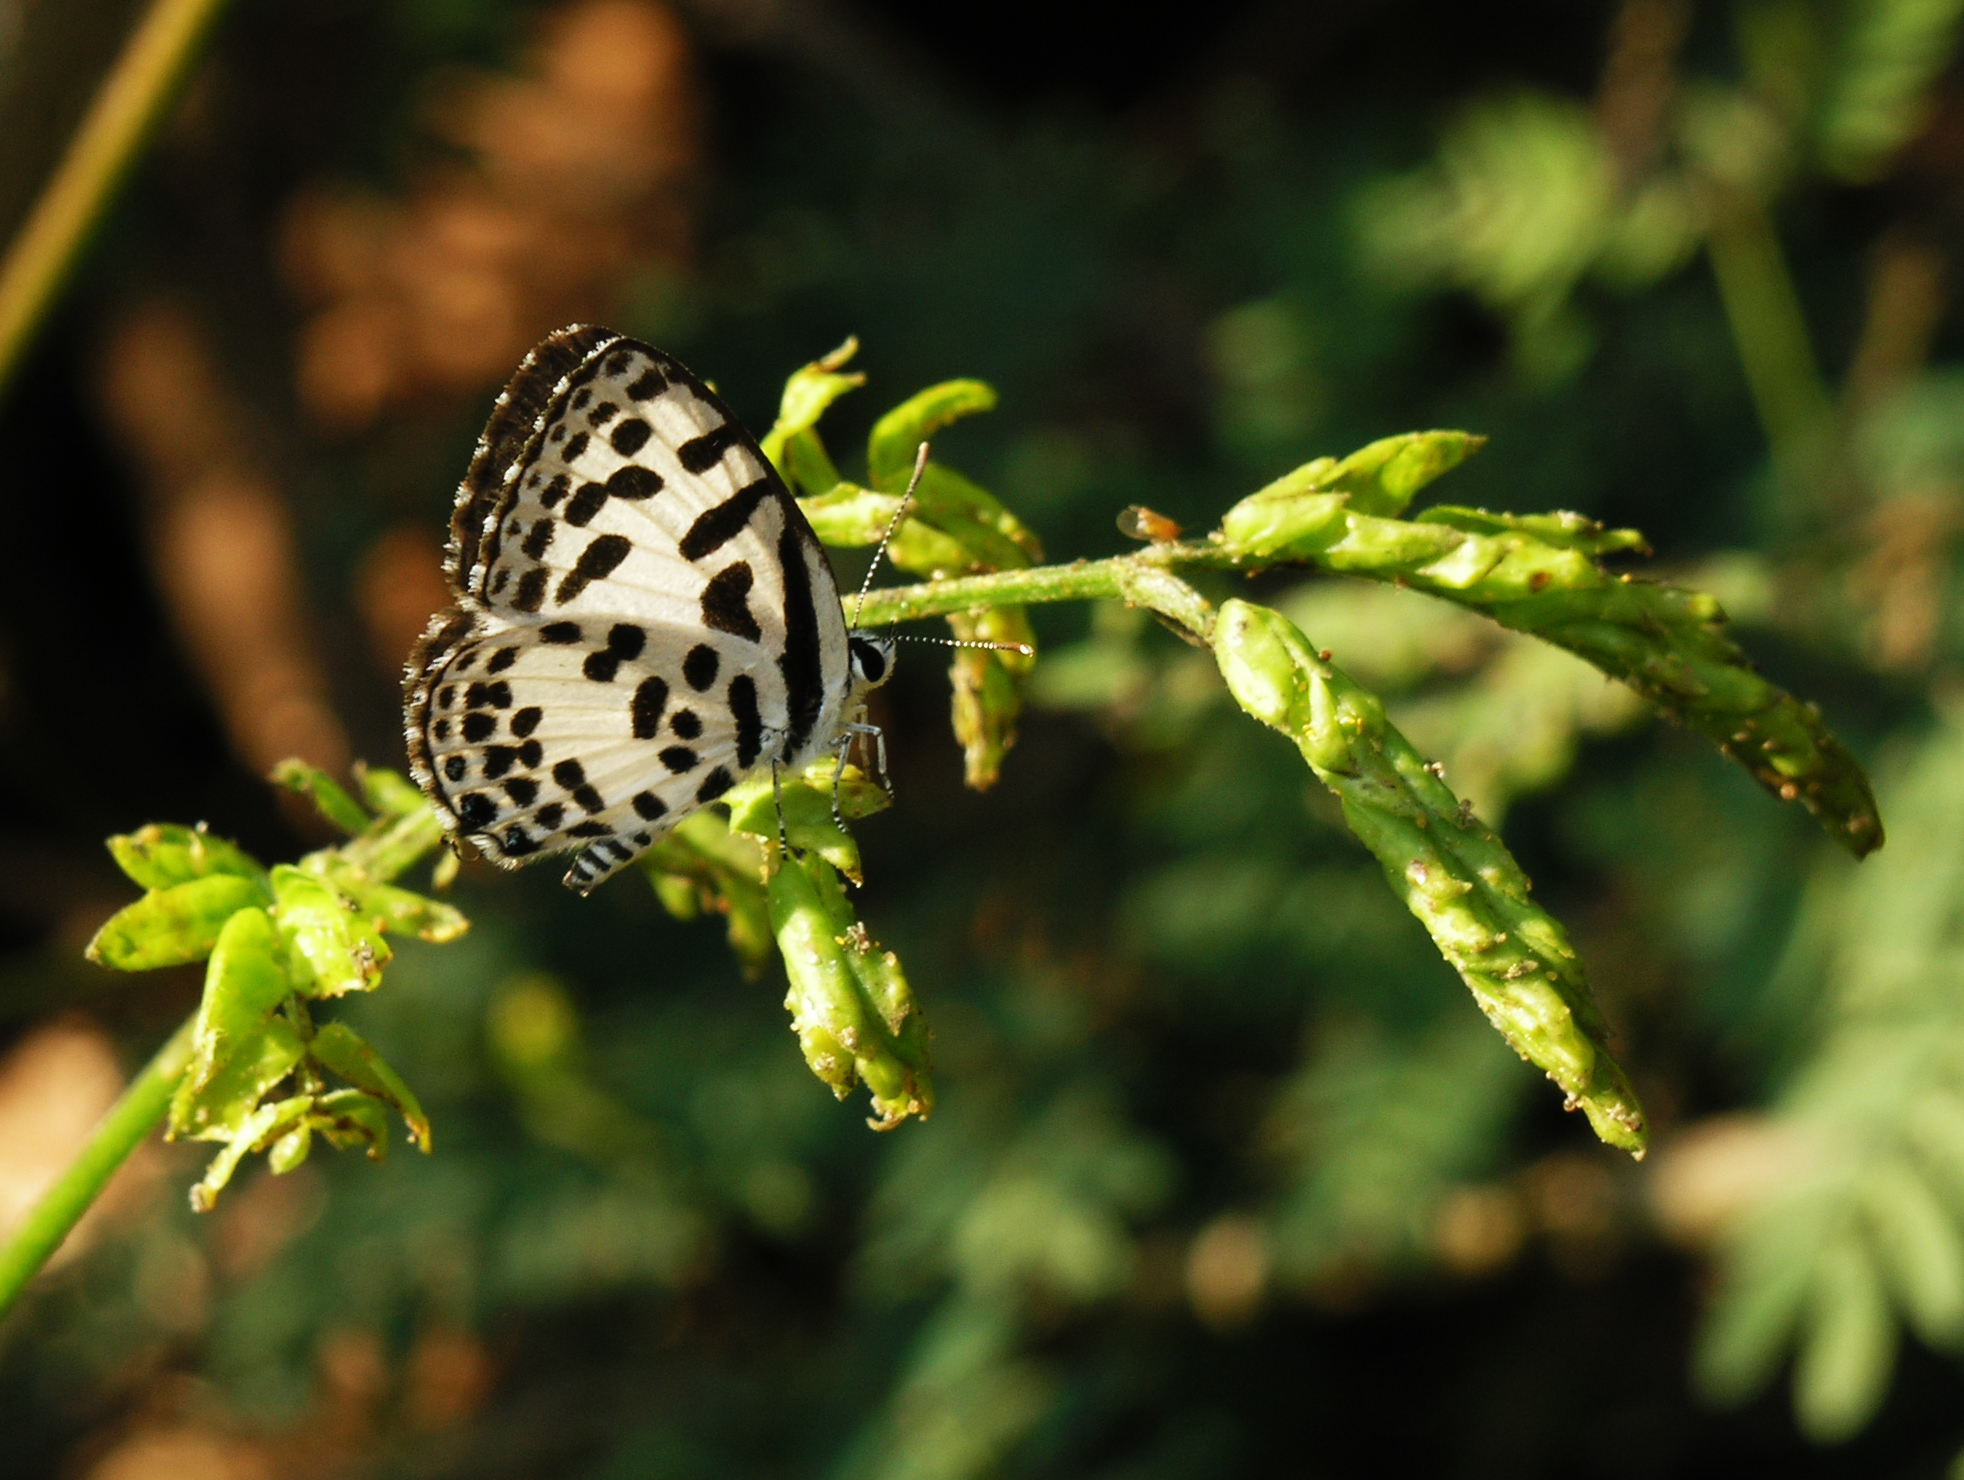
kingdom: Animalia
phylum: Arthropoda
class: Insecta
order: Lepidoptera
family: Lycaenidae
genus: Castalius
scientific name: Castalius rosimon
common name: Common pierrot
